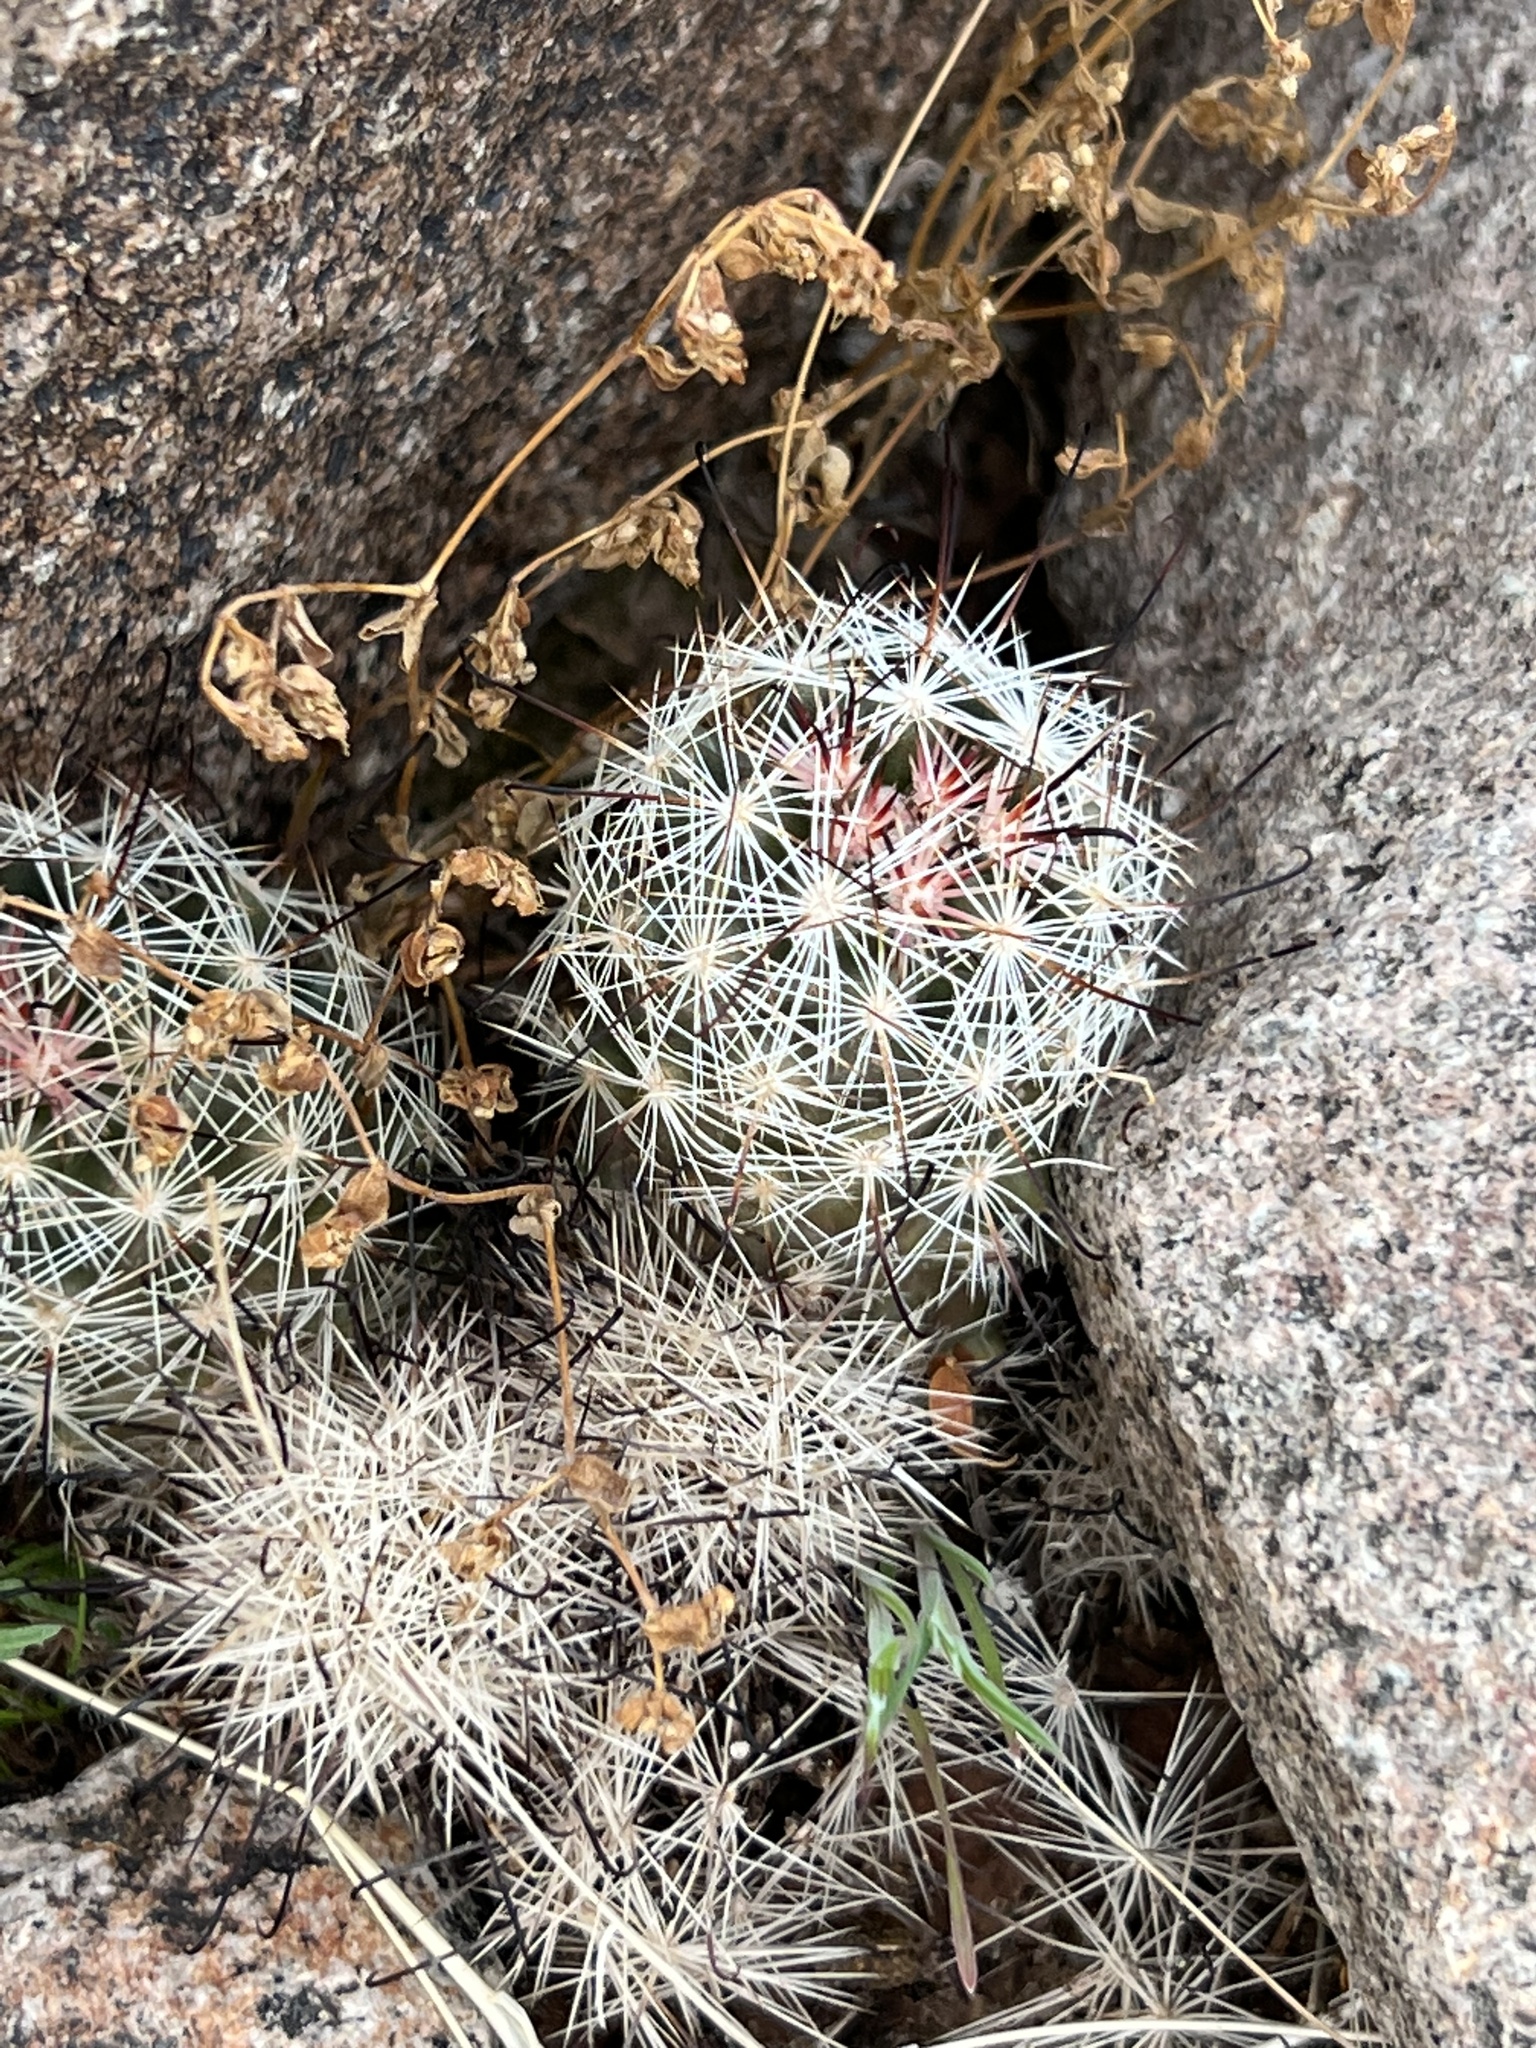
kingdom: Plantae
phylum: Tracheophyta
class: Magnoliopsida
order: Caryophyllales
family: Cactaceae
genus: Cochemiea
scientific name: Cochemiea tetrancistra
